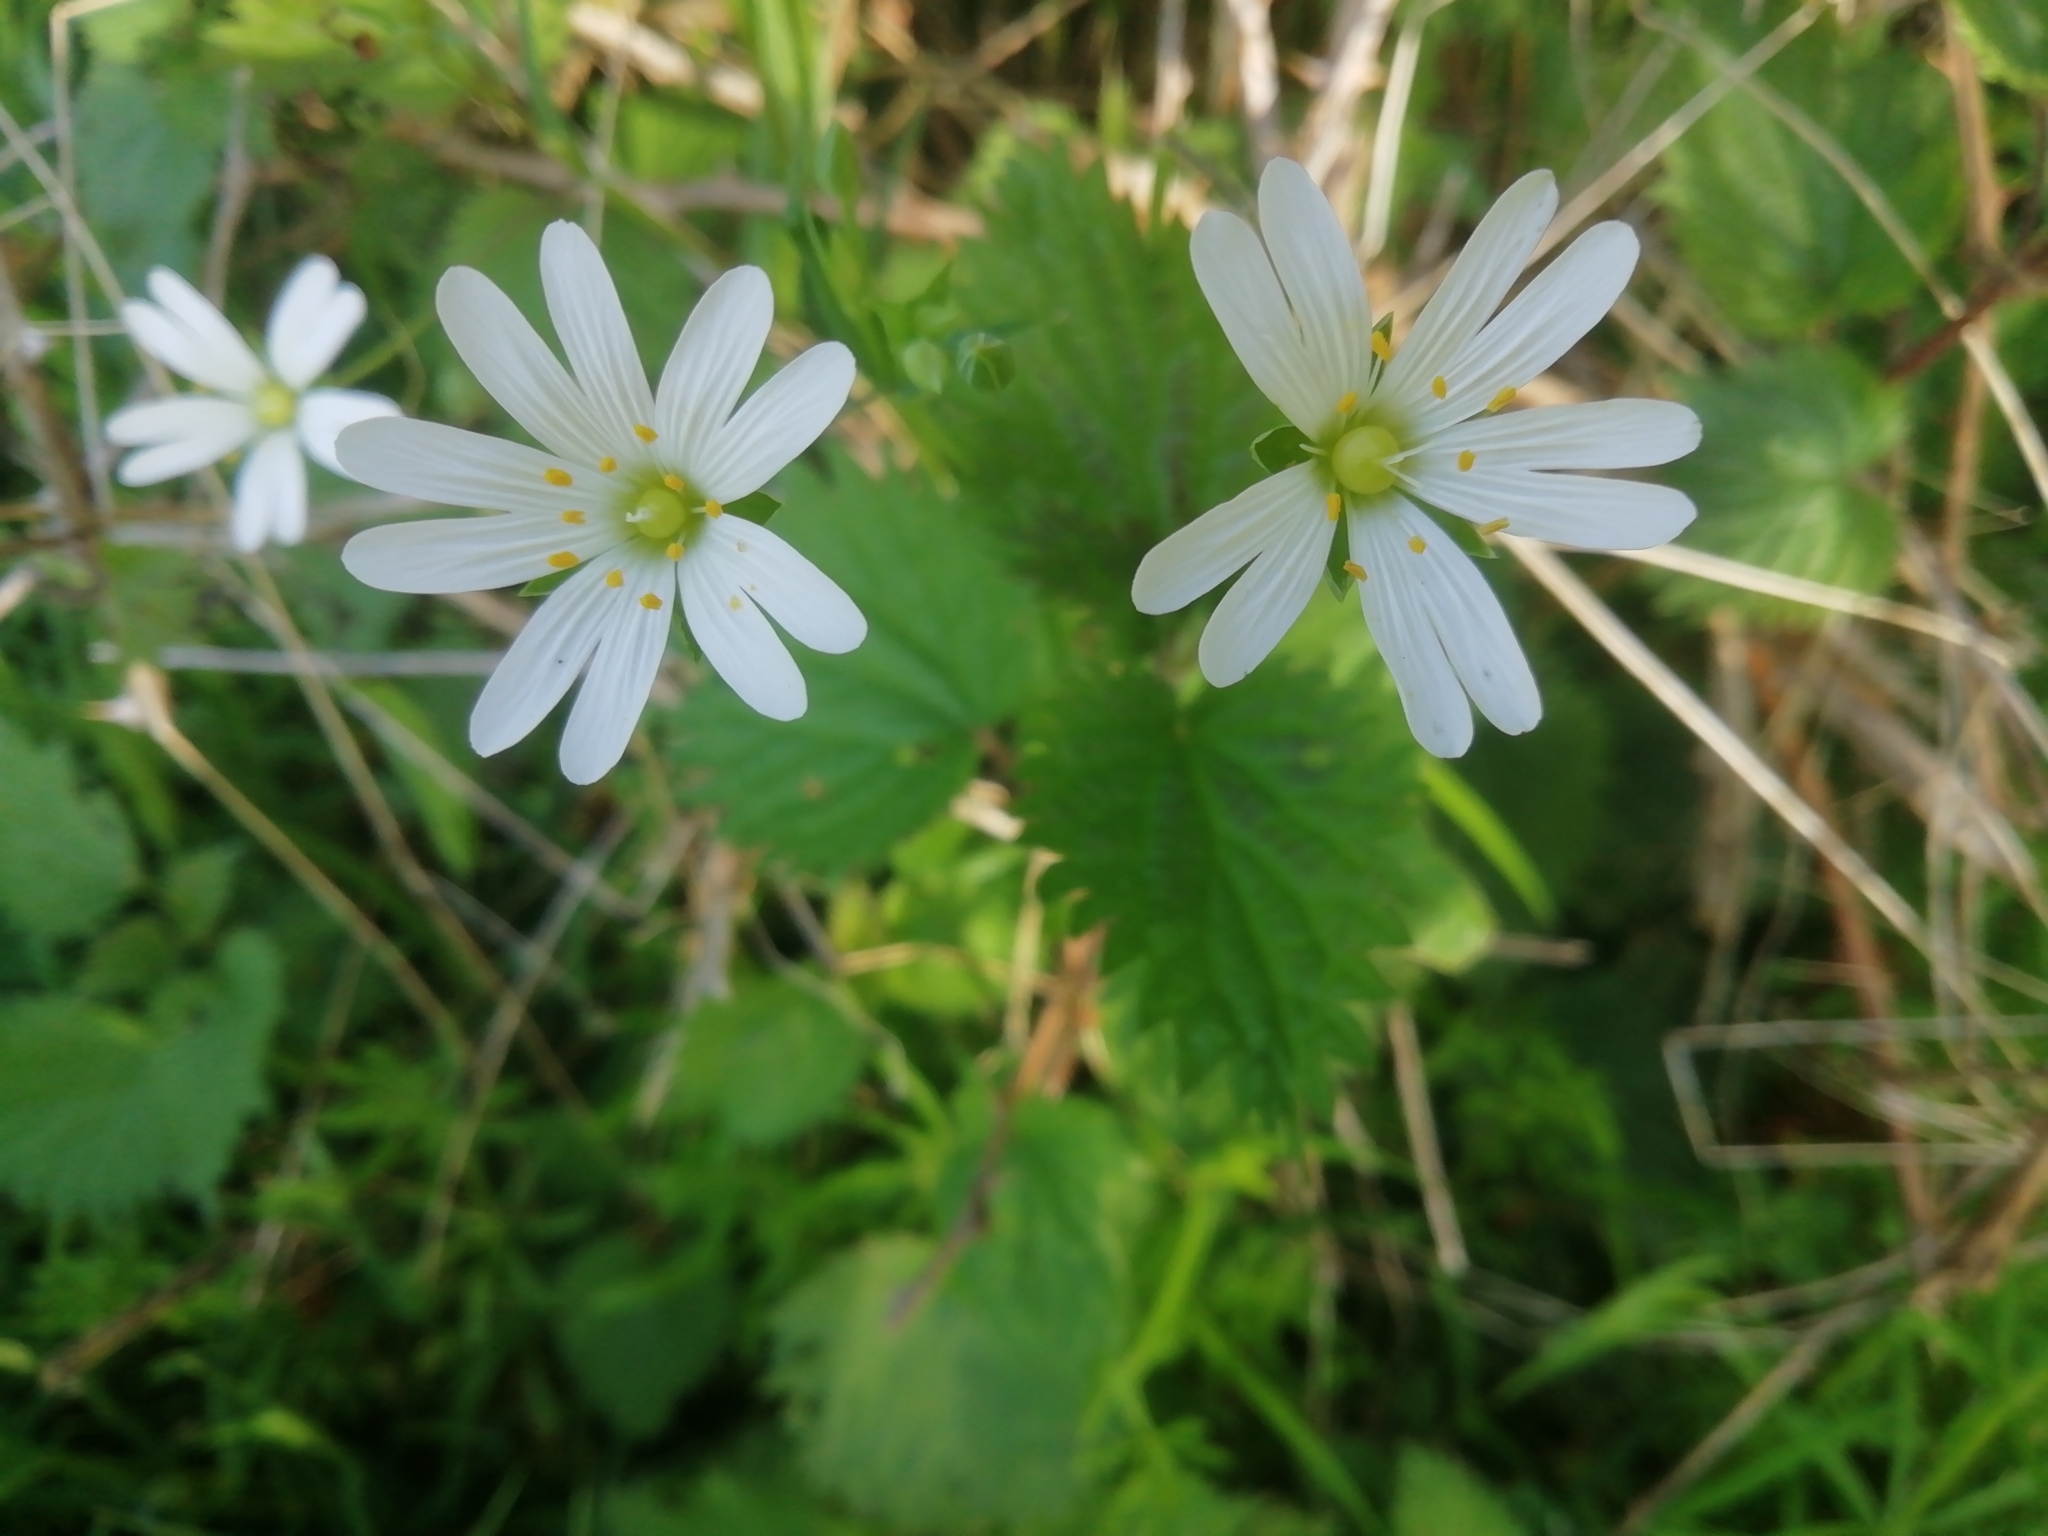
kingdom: Plantae
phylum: Tracheophyta
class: Magnoliopsida
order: Caryophyllales
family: Caryophyllaceae
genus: Rabelera
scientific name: Rabelera holostea
